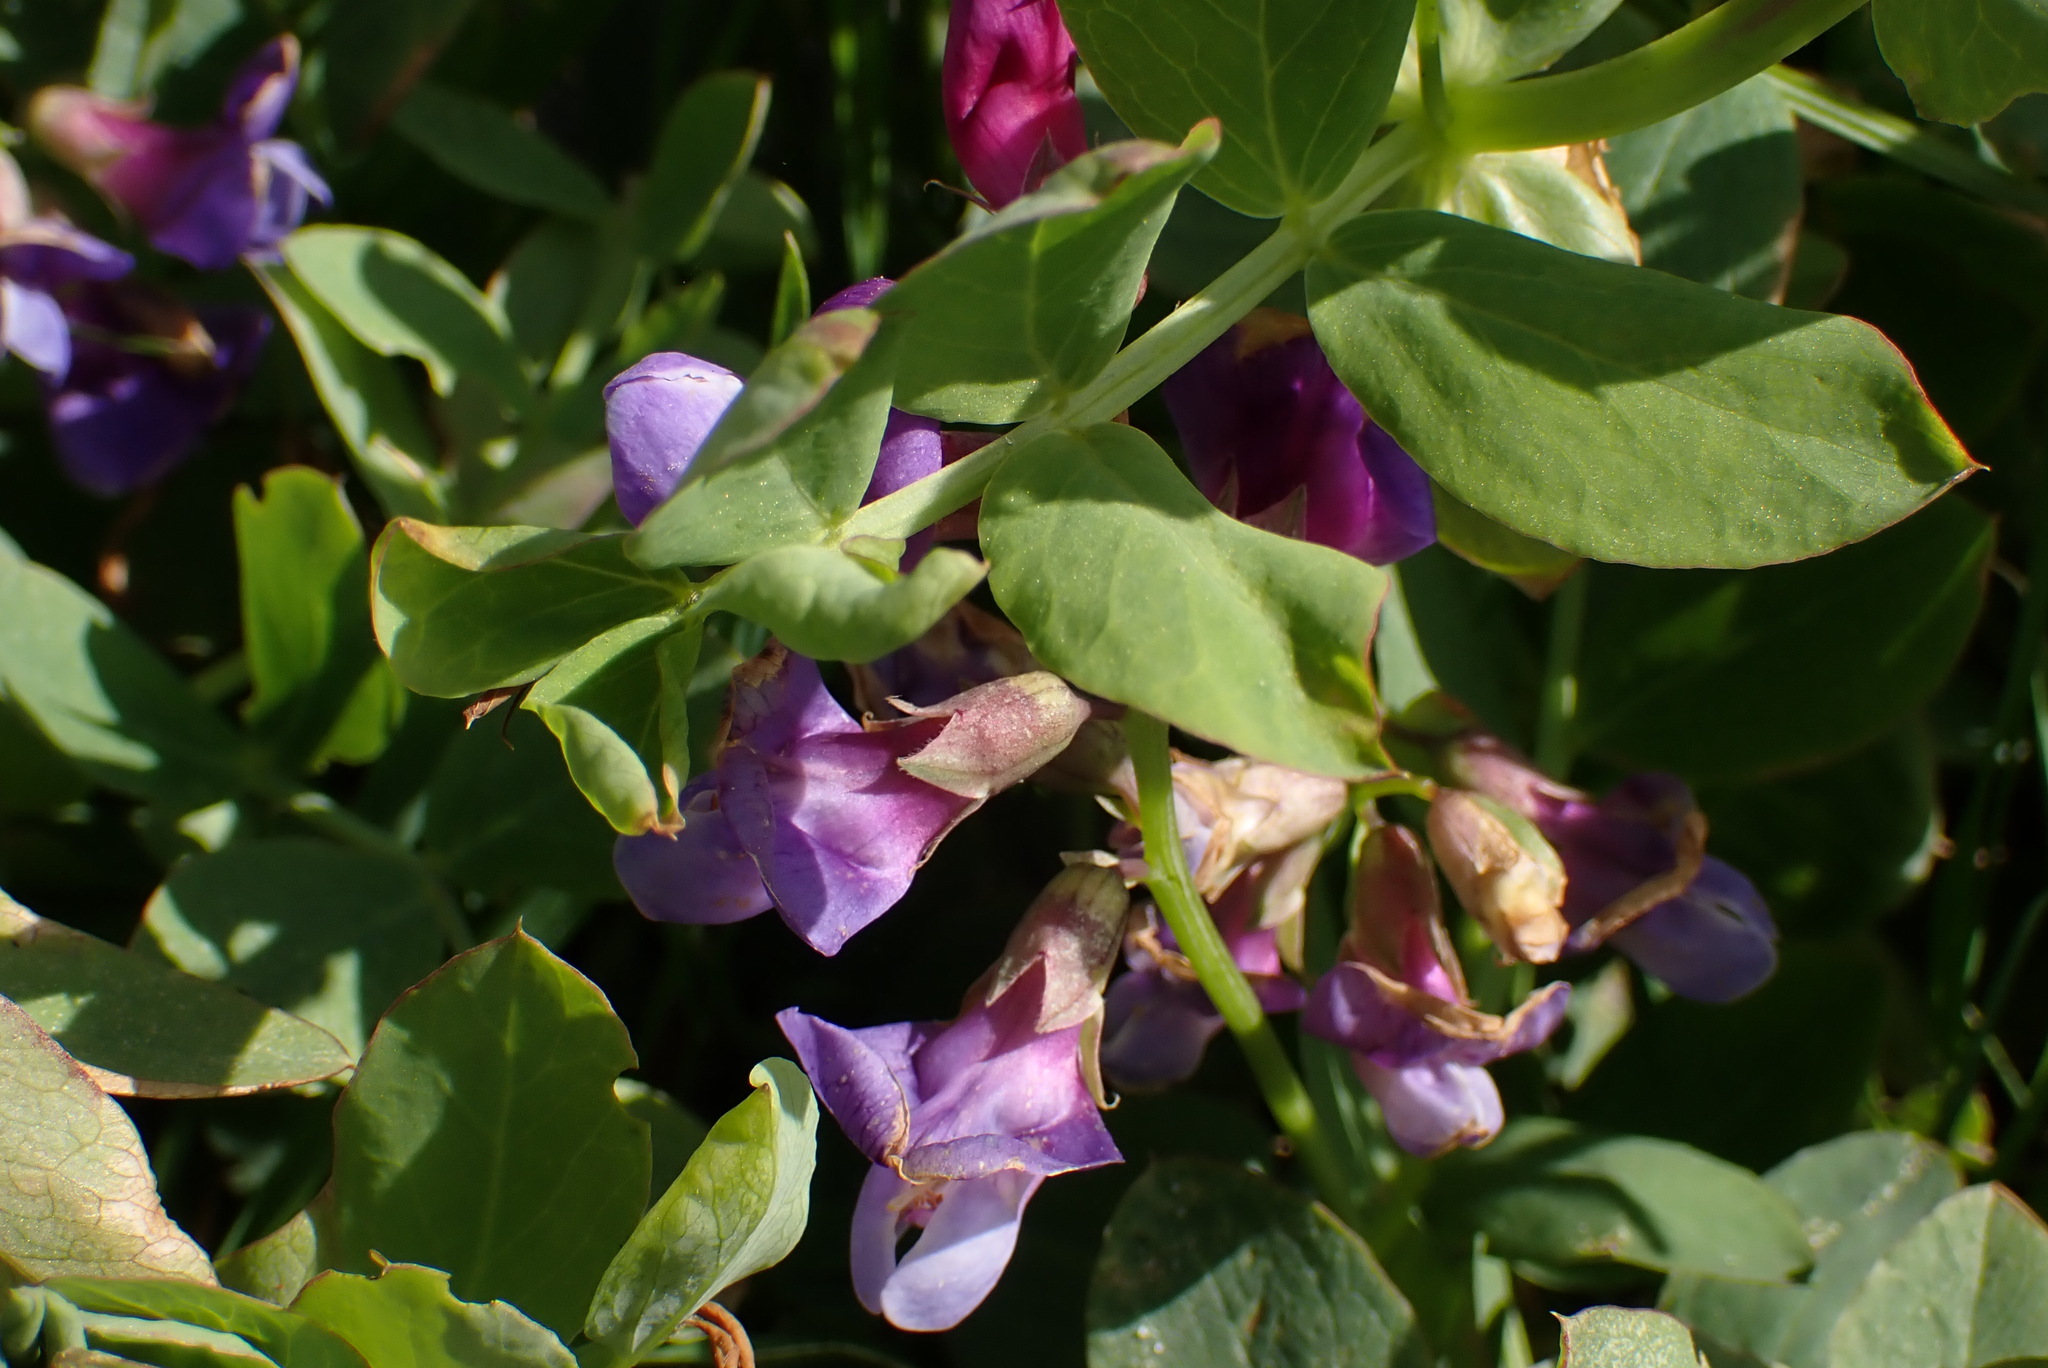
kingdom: Plantae
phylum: Tracheophyta
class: Magnoliopsida
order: Fabales
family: Fabaceae
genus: Lathyrus
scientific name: Lathyrus japonicus
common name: Sea pea
